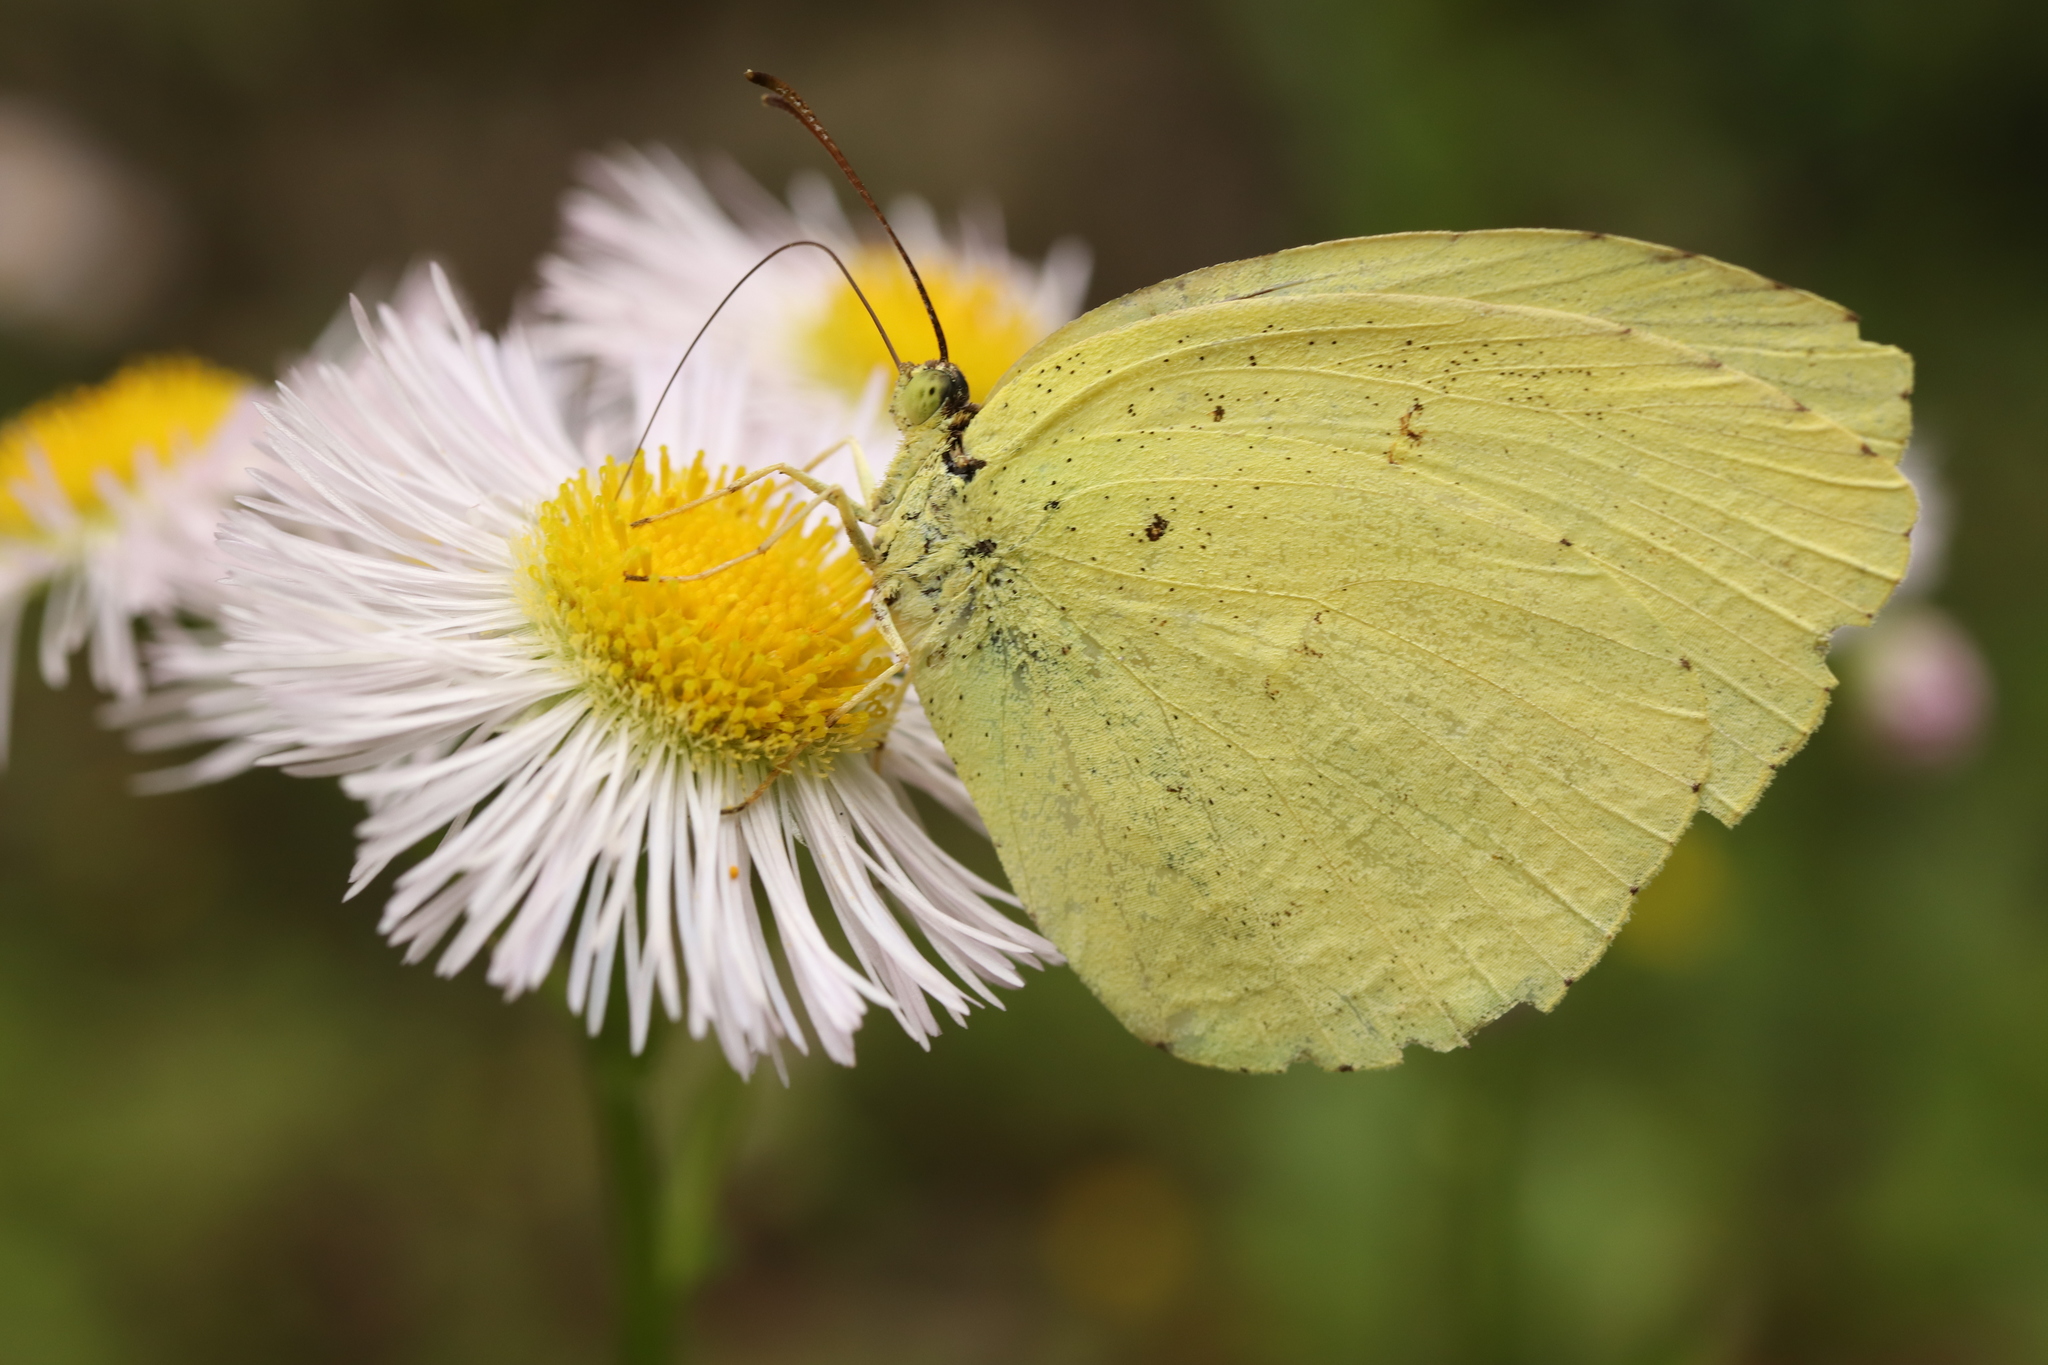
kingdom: Animalia
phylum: Arthropoda
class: Insecta
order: Lepidoptera
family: Pieridae
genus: Eurema
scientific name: Eurema mandarina
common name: Japanese common grass yellow
